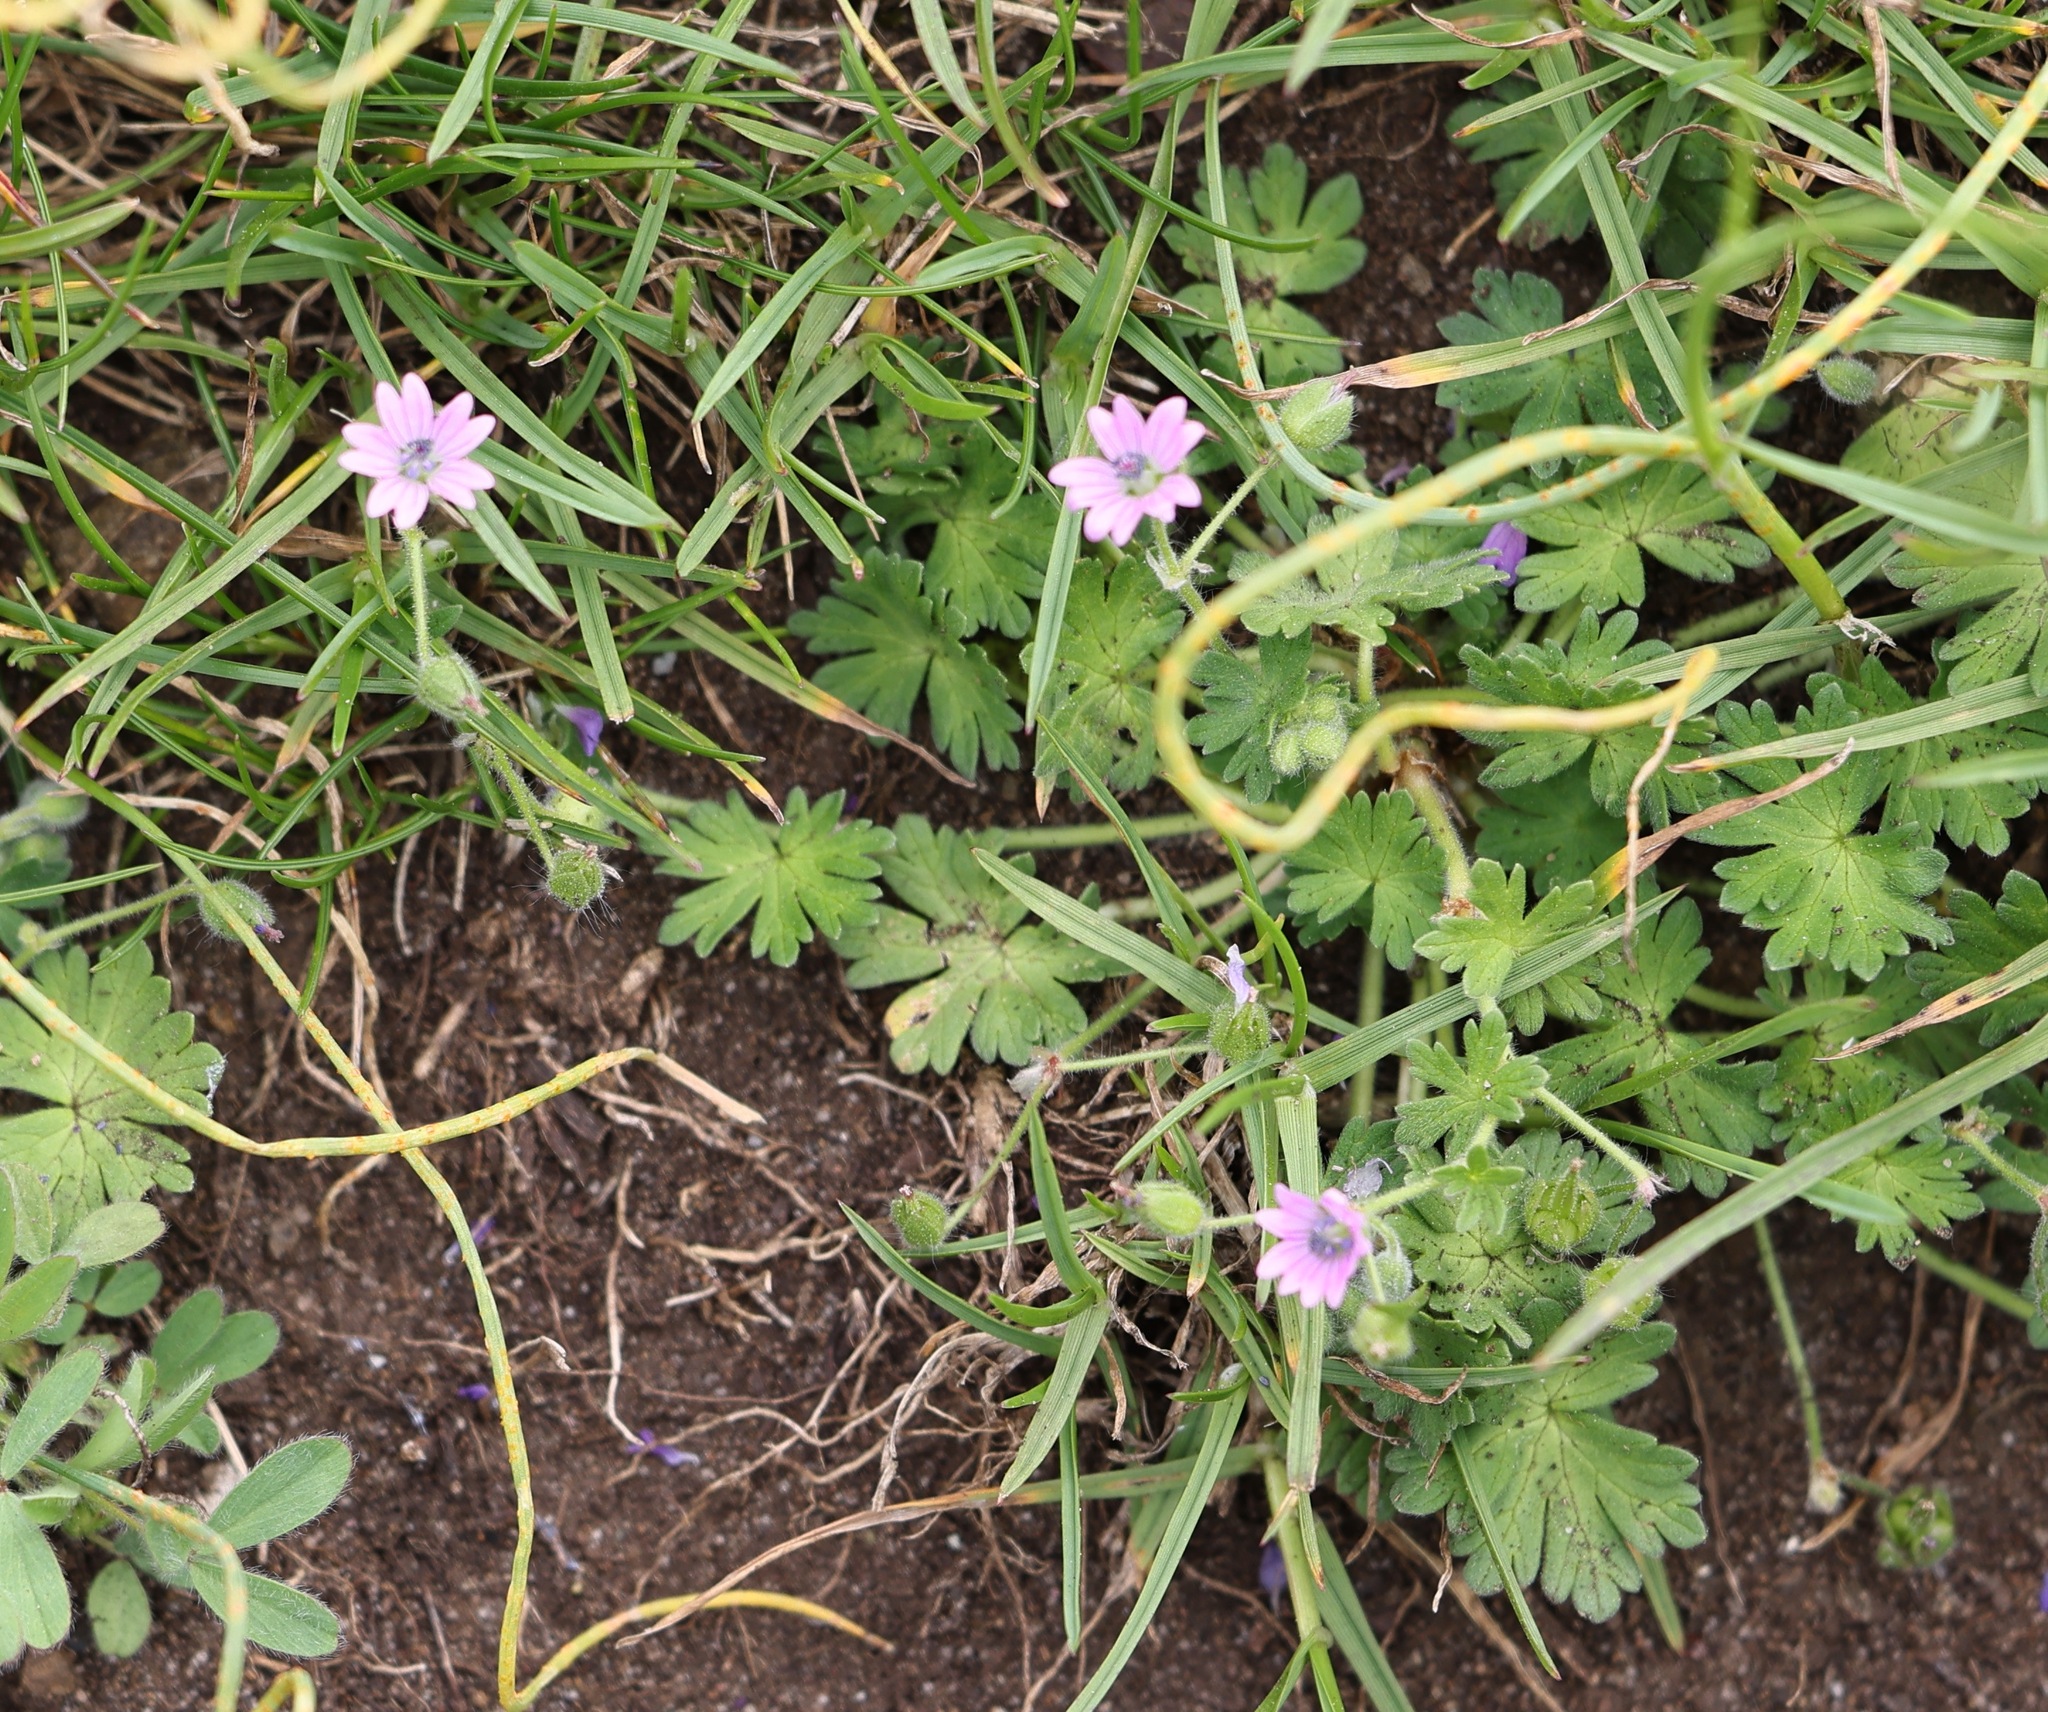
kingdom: Plantae
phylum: Tracheophyta
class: Magnoliopsida
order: Geraniales
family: Geraniaceae
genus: Geranium
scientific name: Geranium molle
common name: Dove's-foot crane's-bill
